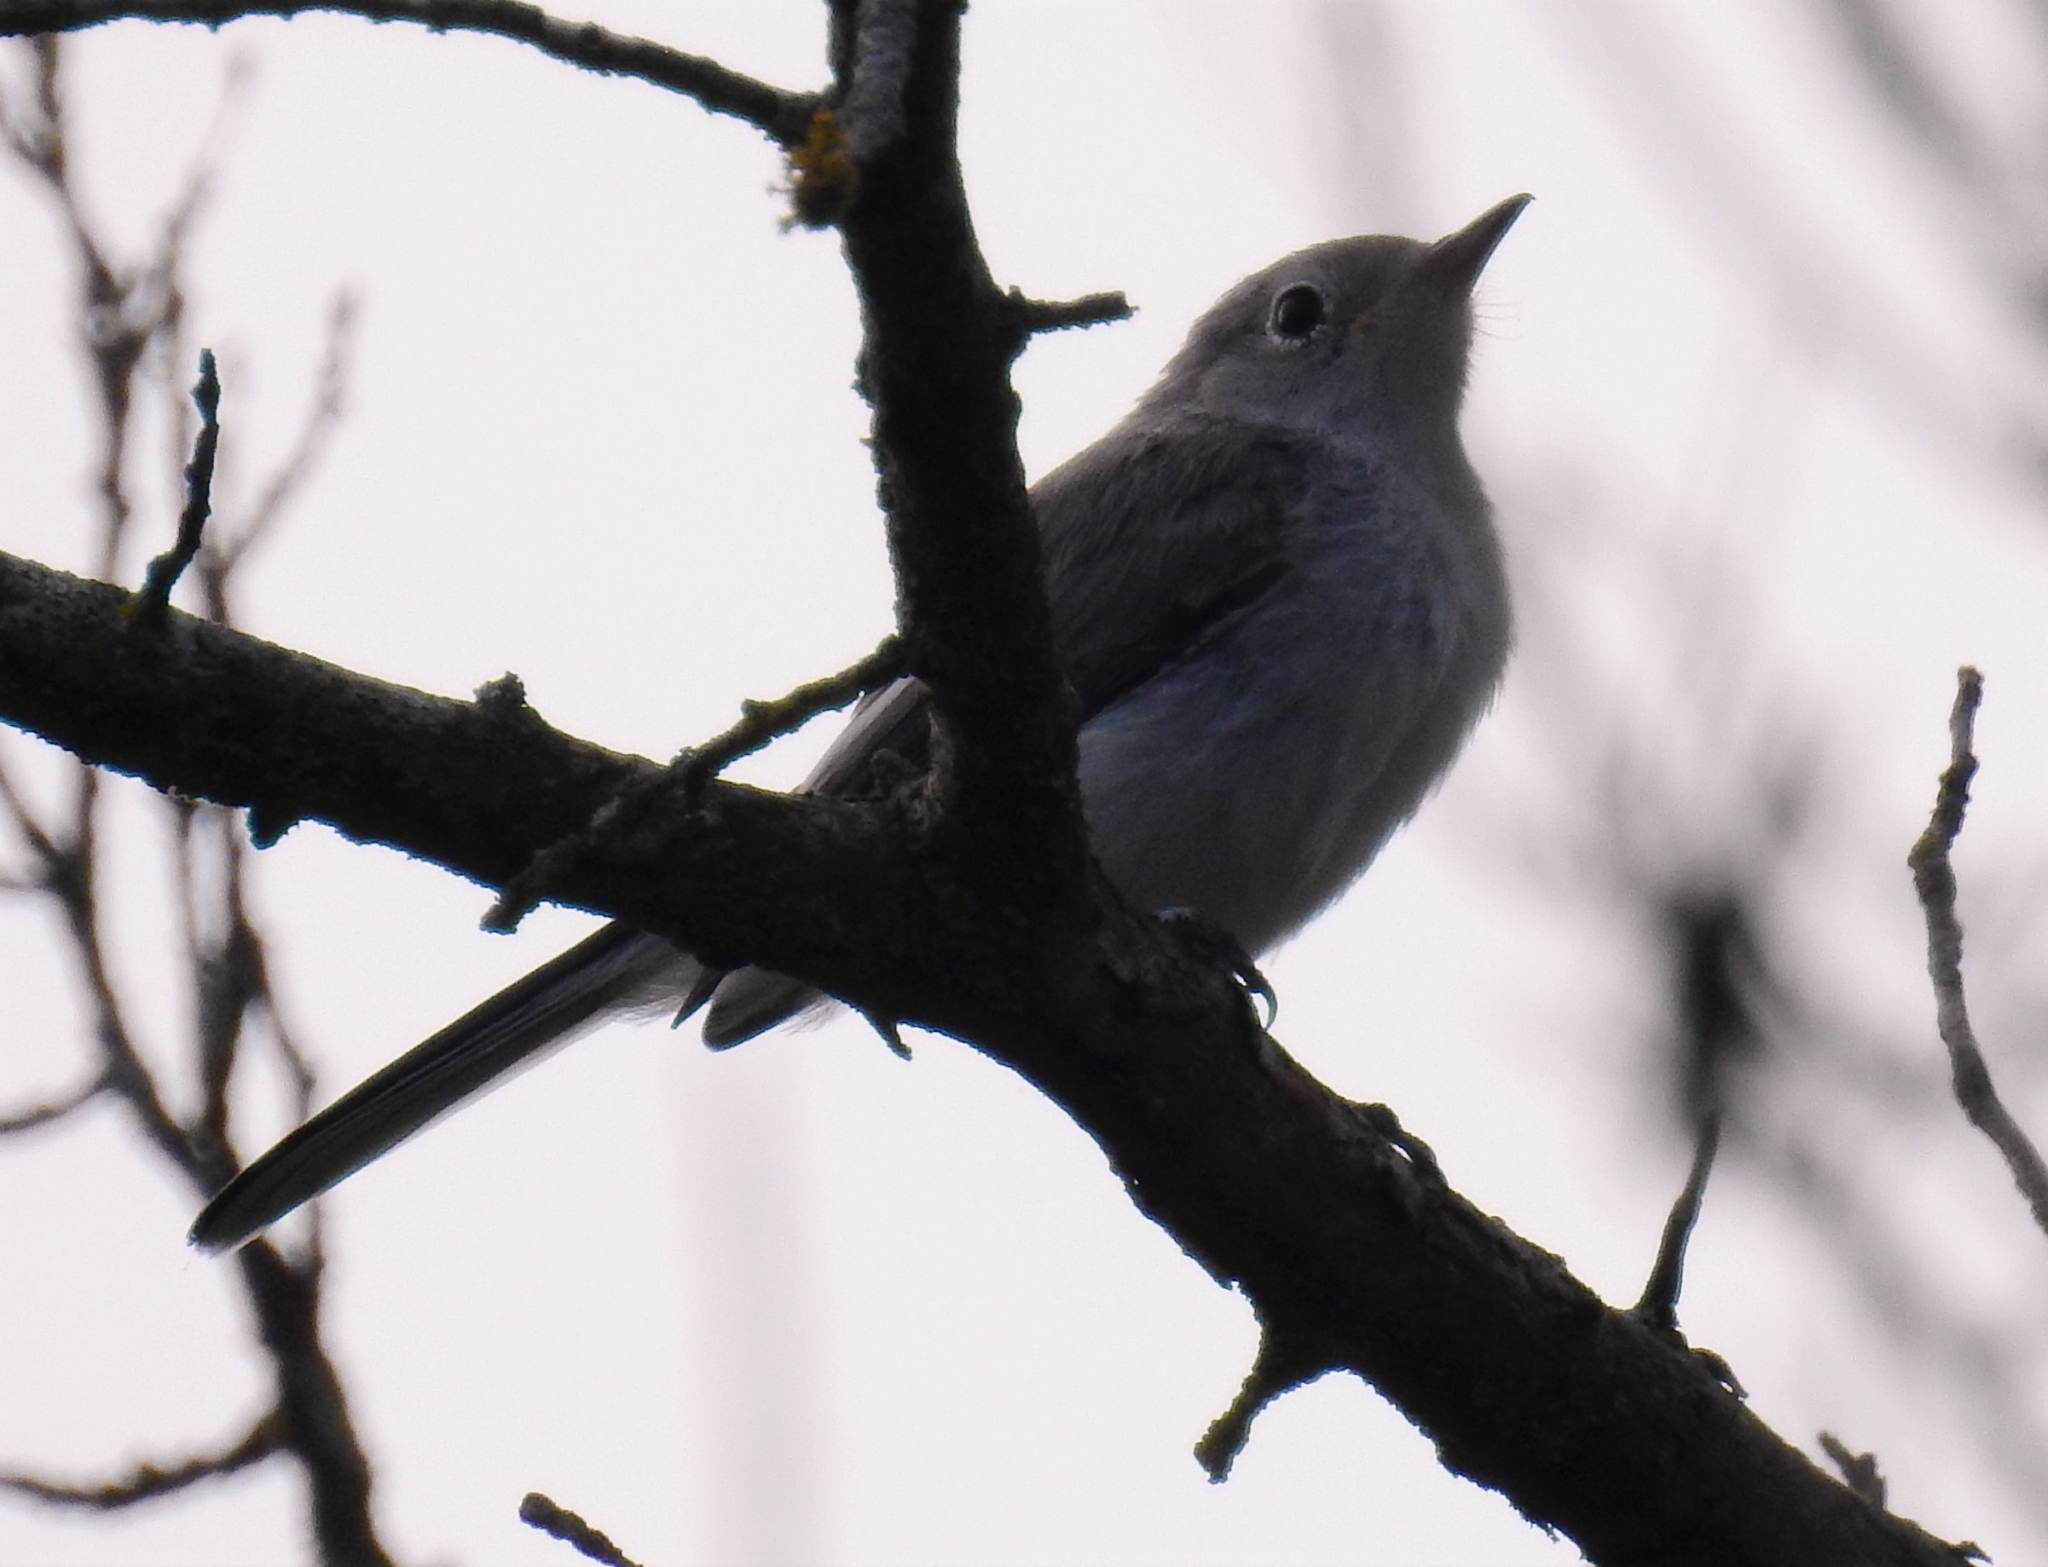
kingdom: Animalia
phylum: Chordata
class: Aves
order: Passeriformes
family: Polioptilidae
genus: Polioptila
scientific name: Polioptila caerulea
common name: Blue-gray gnatcatcher
